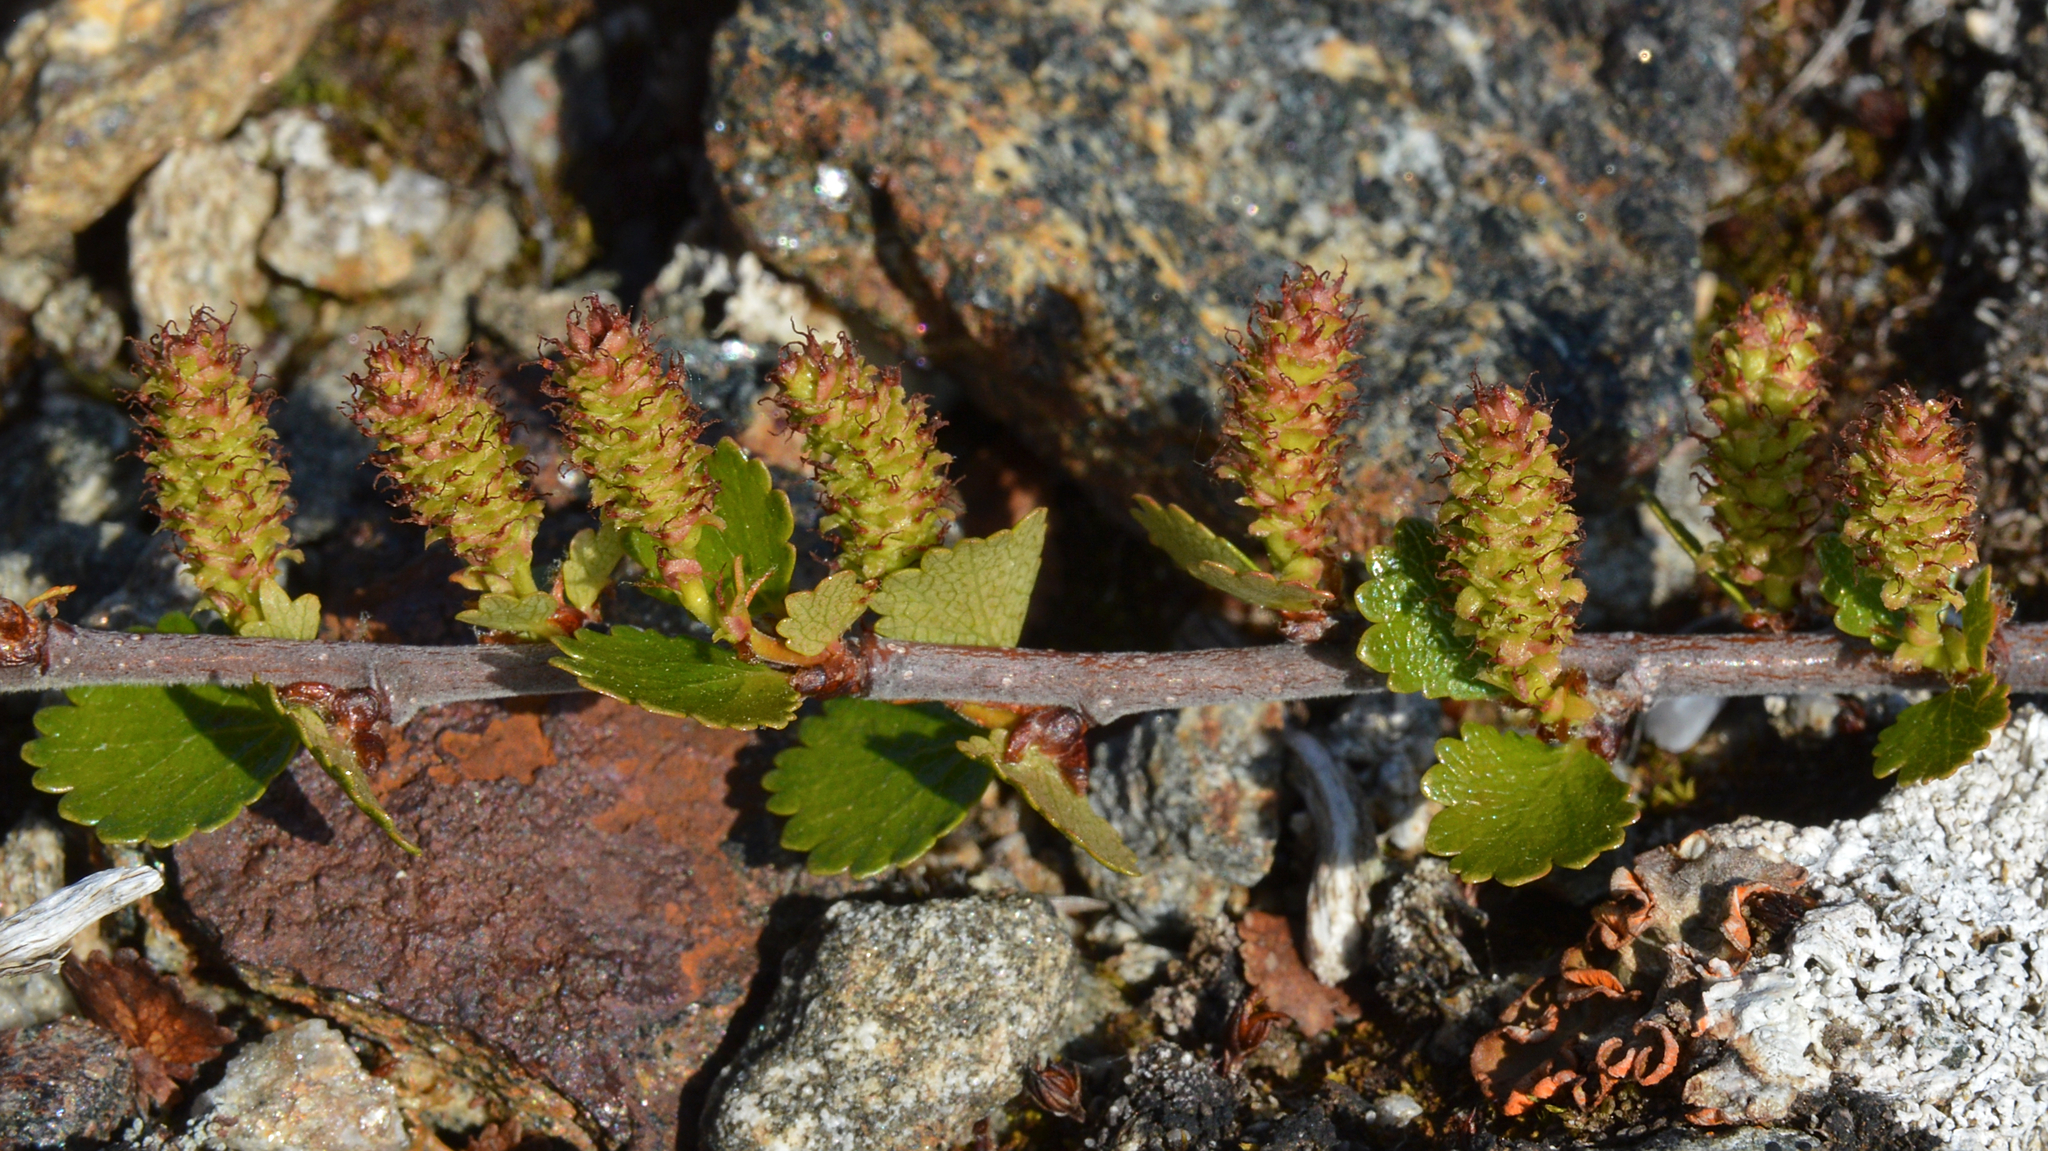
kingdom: Plantae
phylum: Tracheophyta
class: Magnoliopsida
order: Fagales
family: Betulaceae
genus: Betula
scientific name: Betula nana
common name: Arctic dwarf birch
